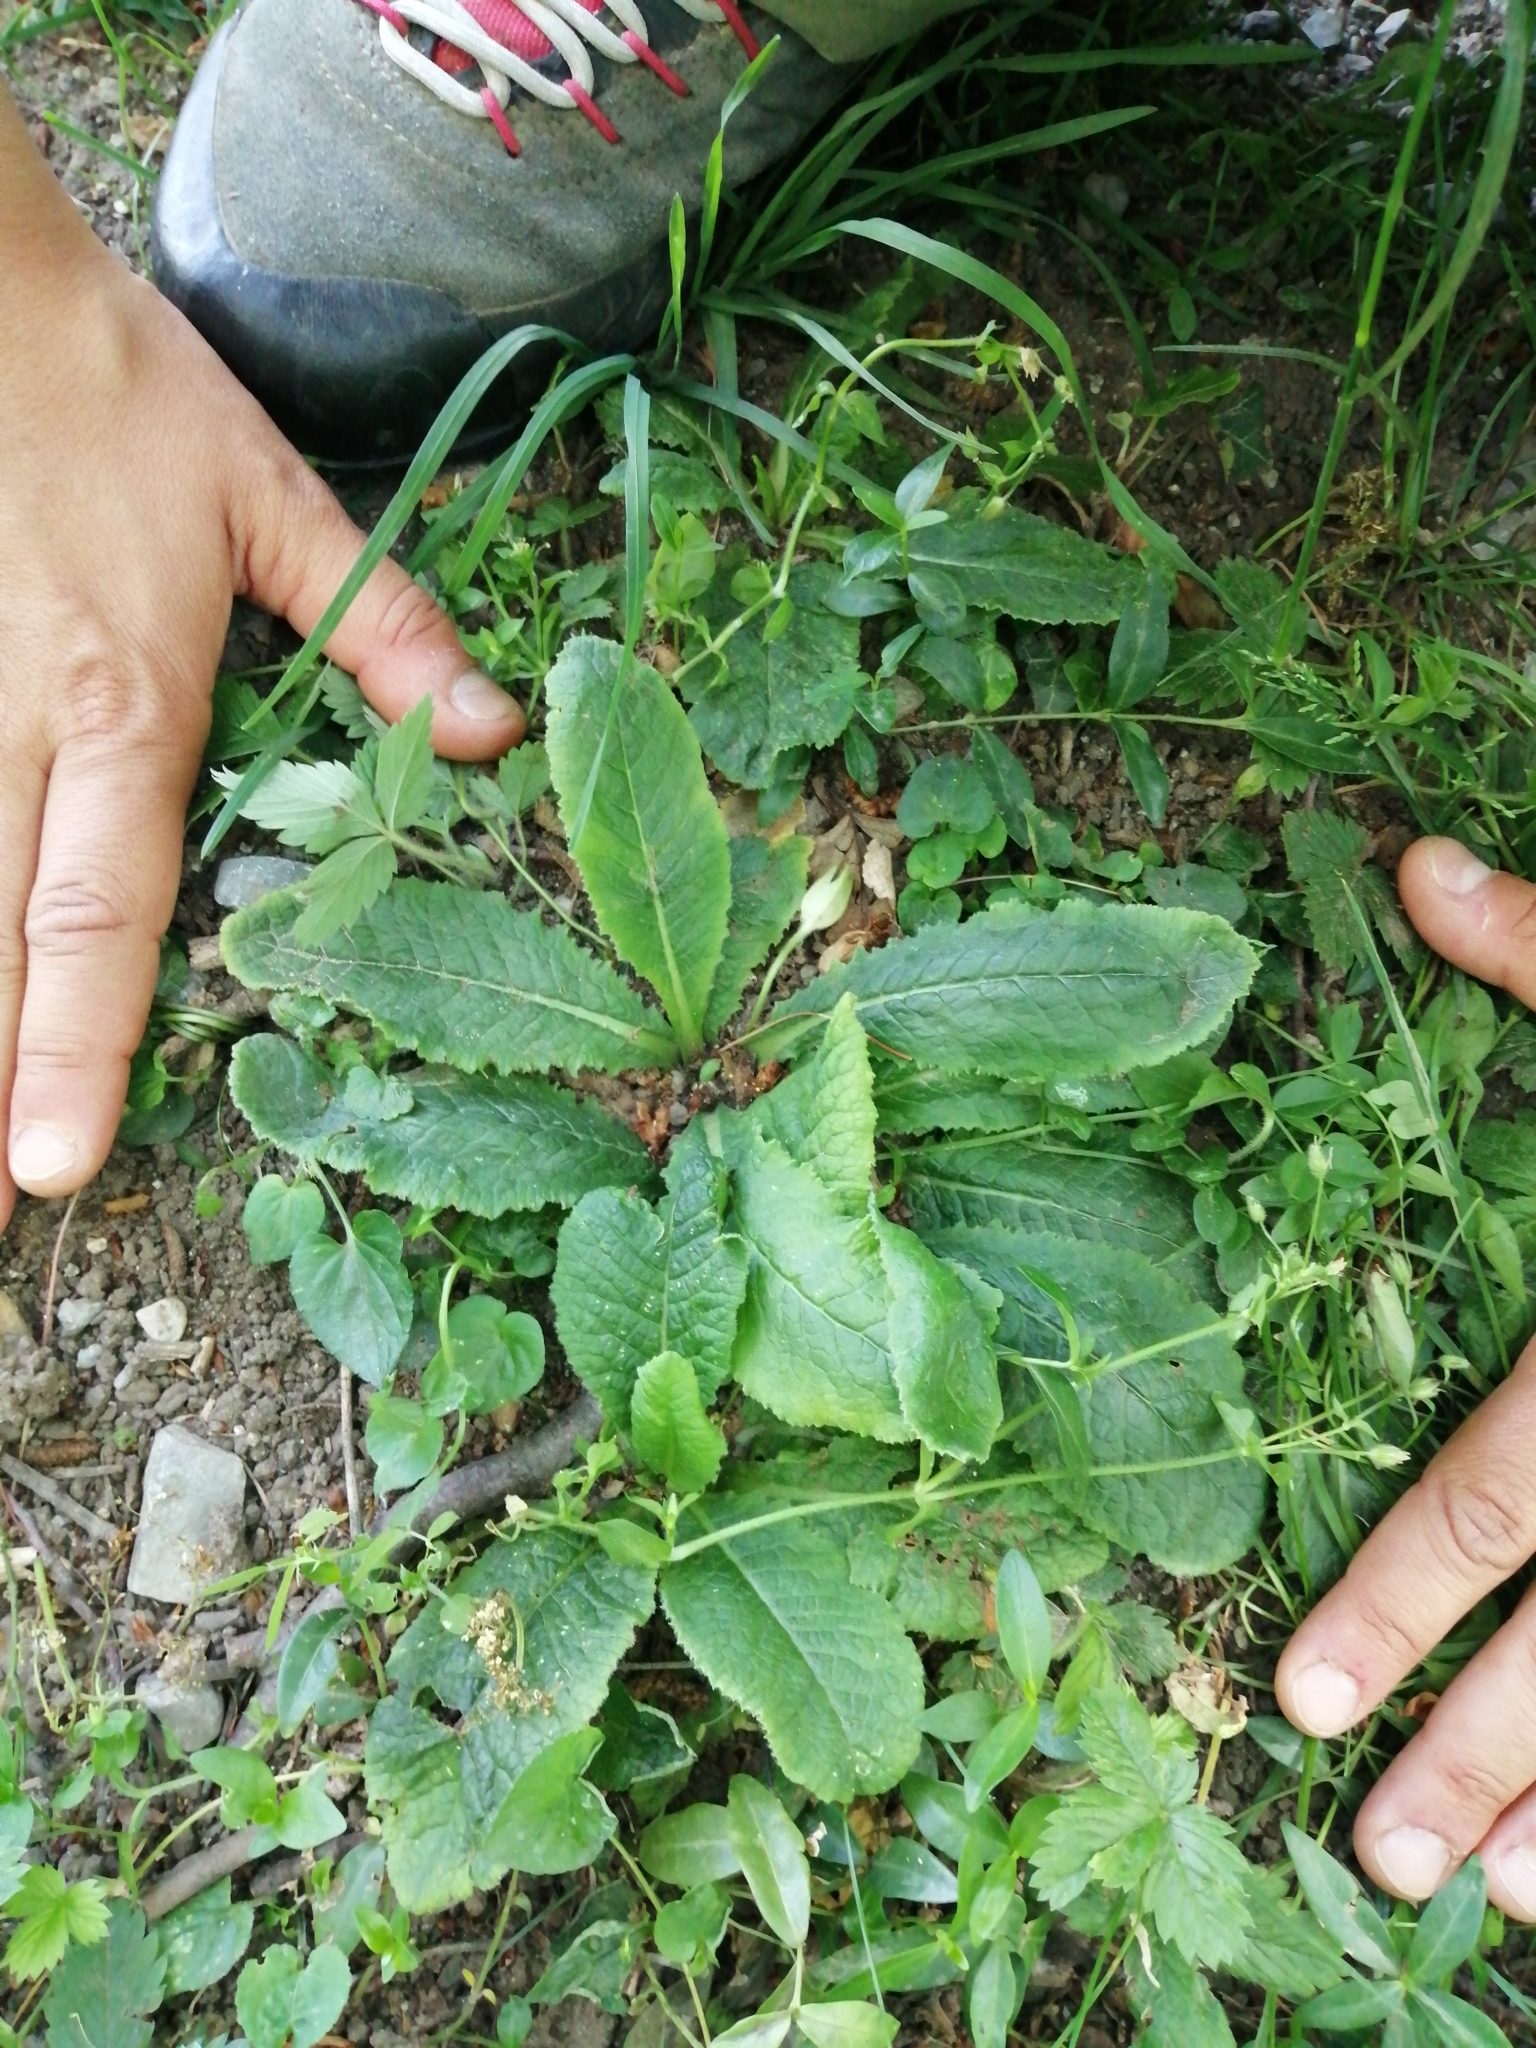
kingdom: Plantae
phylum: Tracheophyta
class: Magnoliopsida
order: Ericales
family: Primulaceae
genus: Primula
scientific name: Primula vulgaris
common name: Primrose
